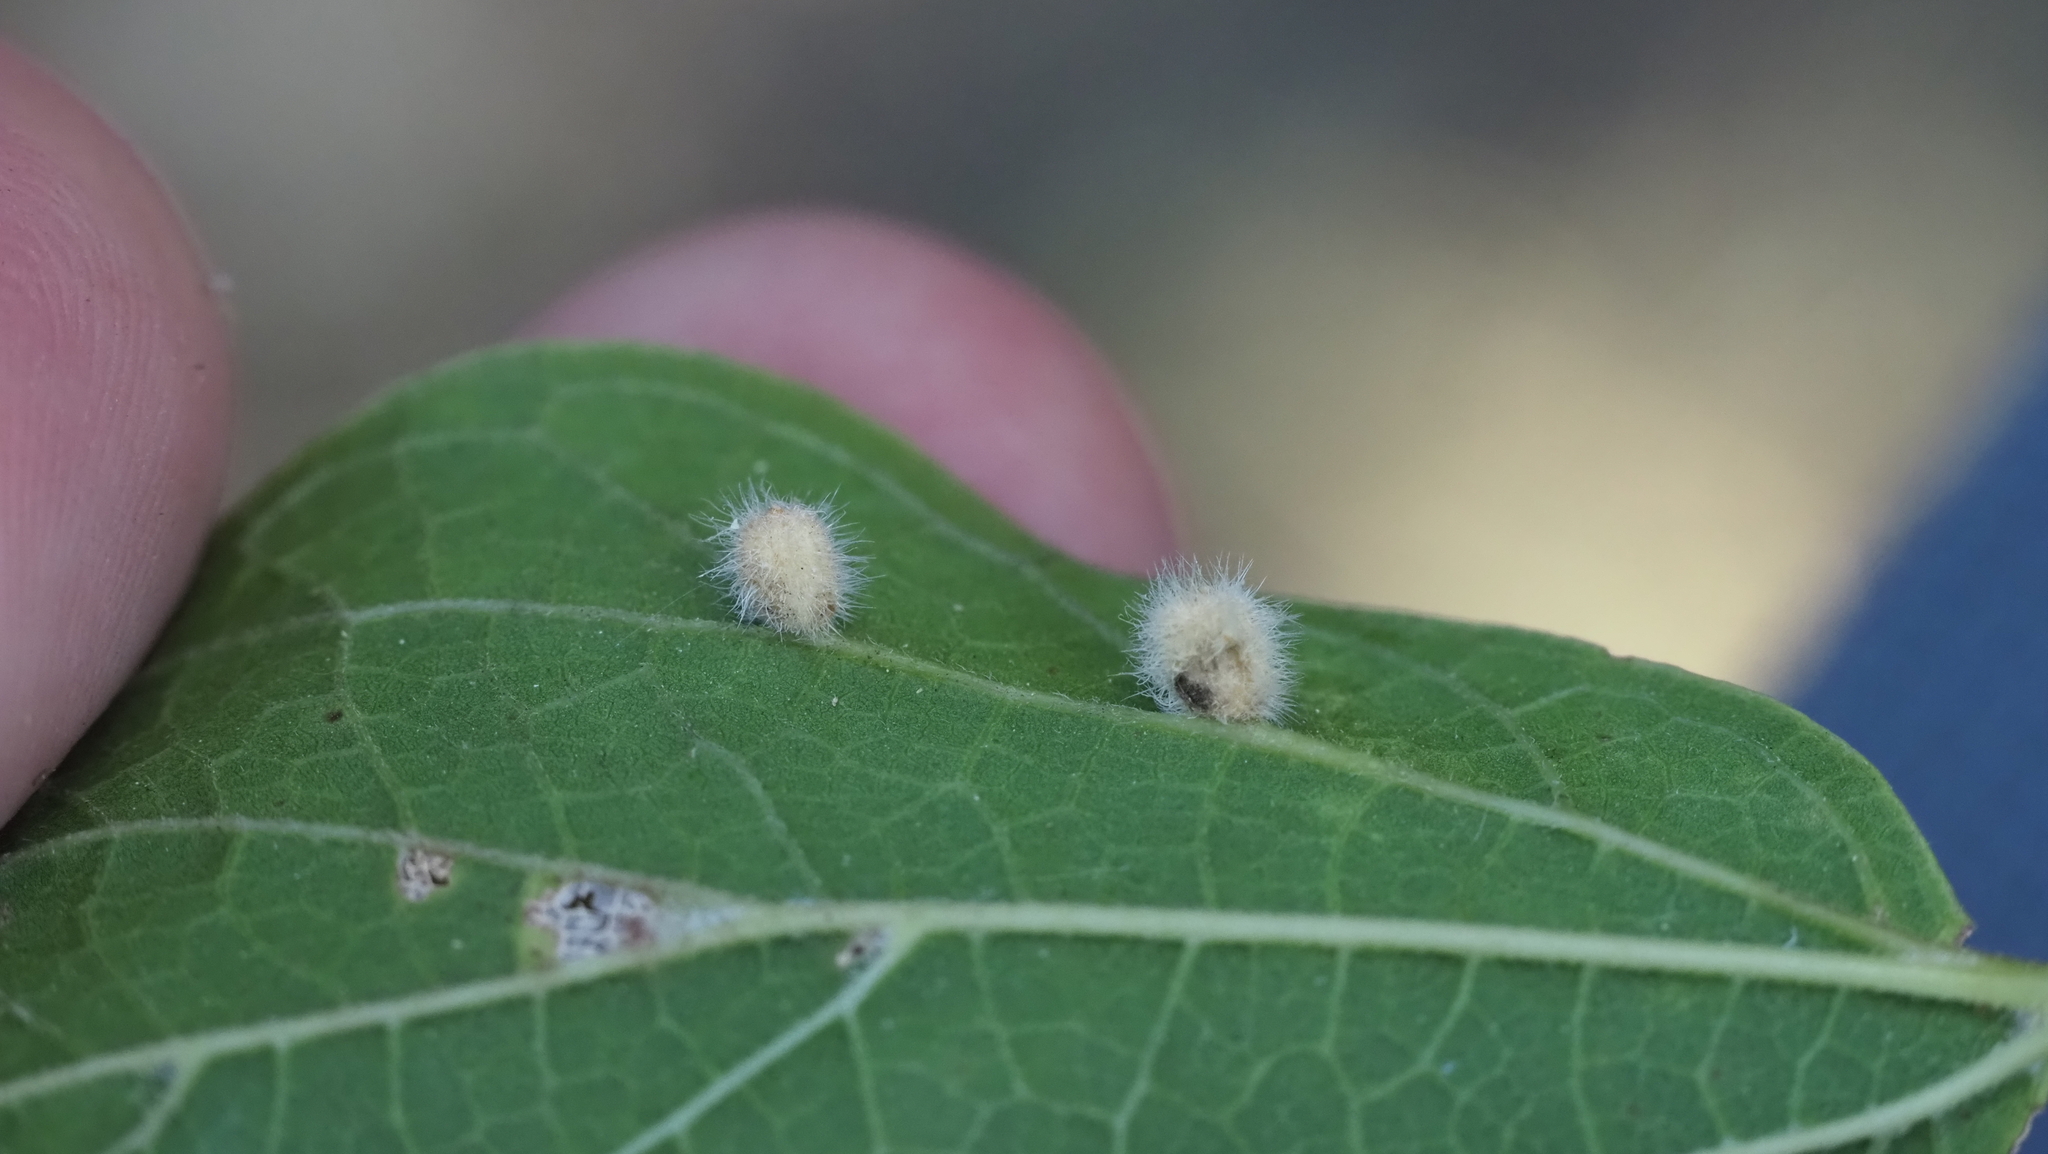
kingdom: Animalia
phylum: Arthropoda
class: Insecta
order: Diptera
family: Cecidomyiidae
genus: Celticecis
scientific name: Celticecis pubescens
